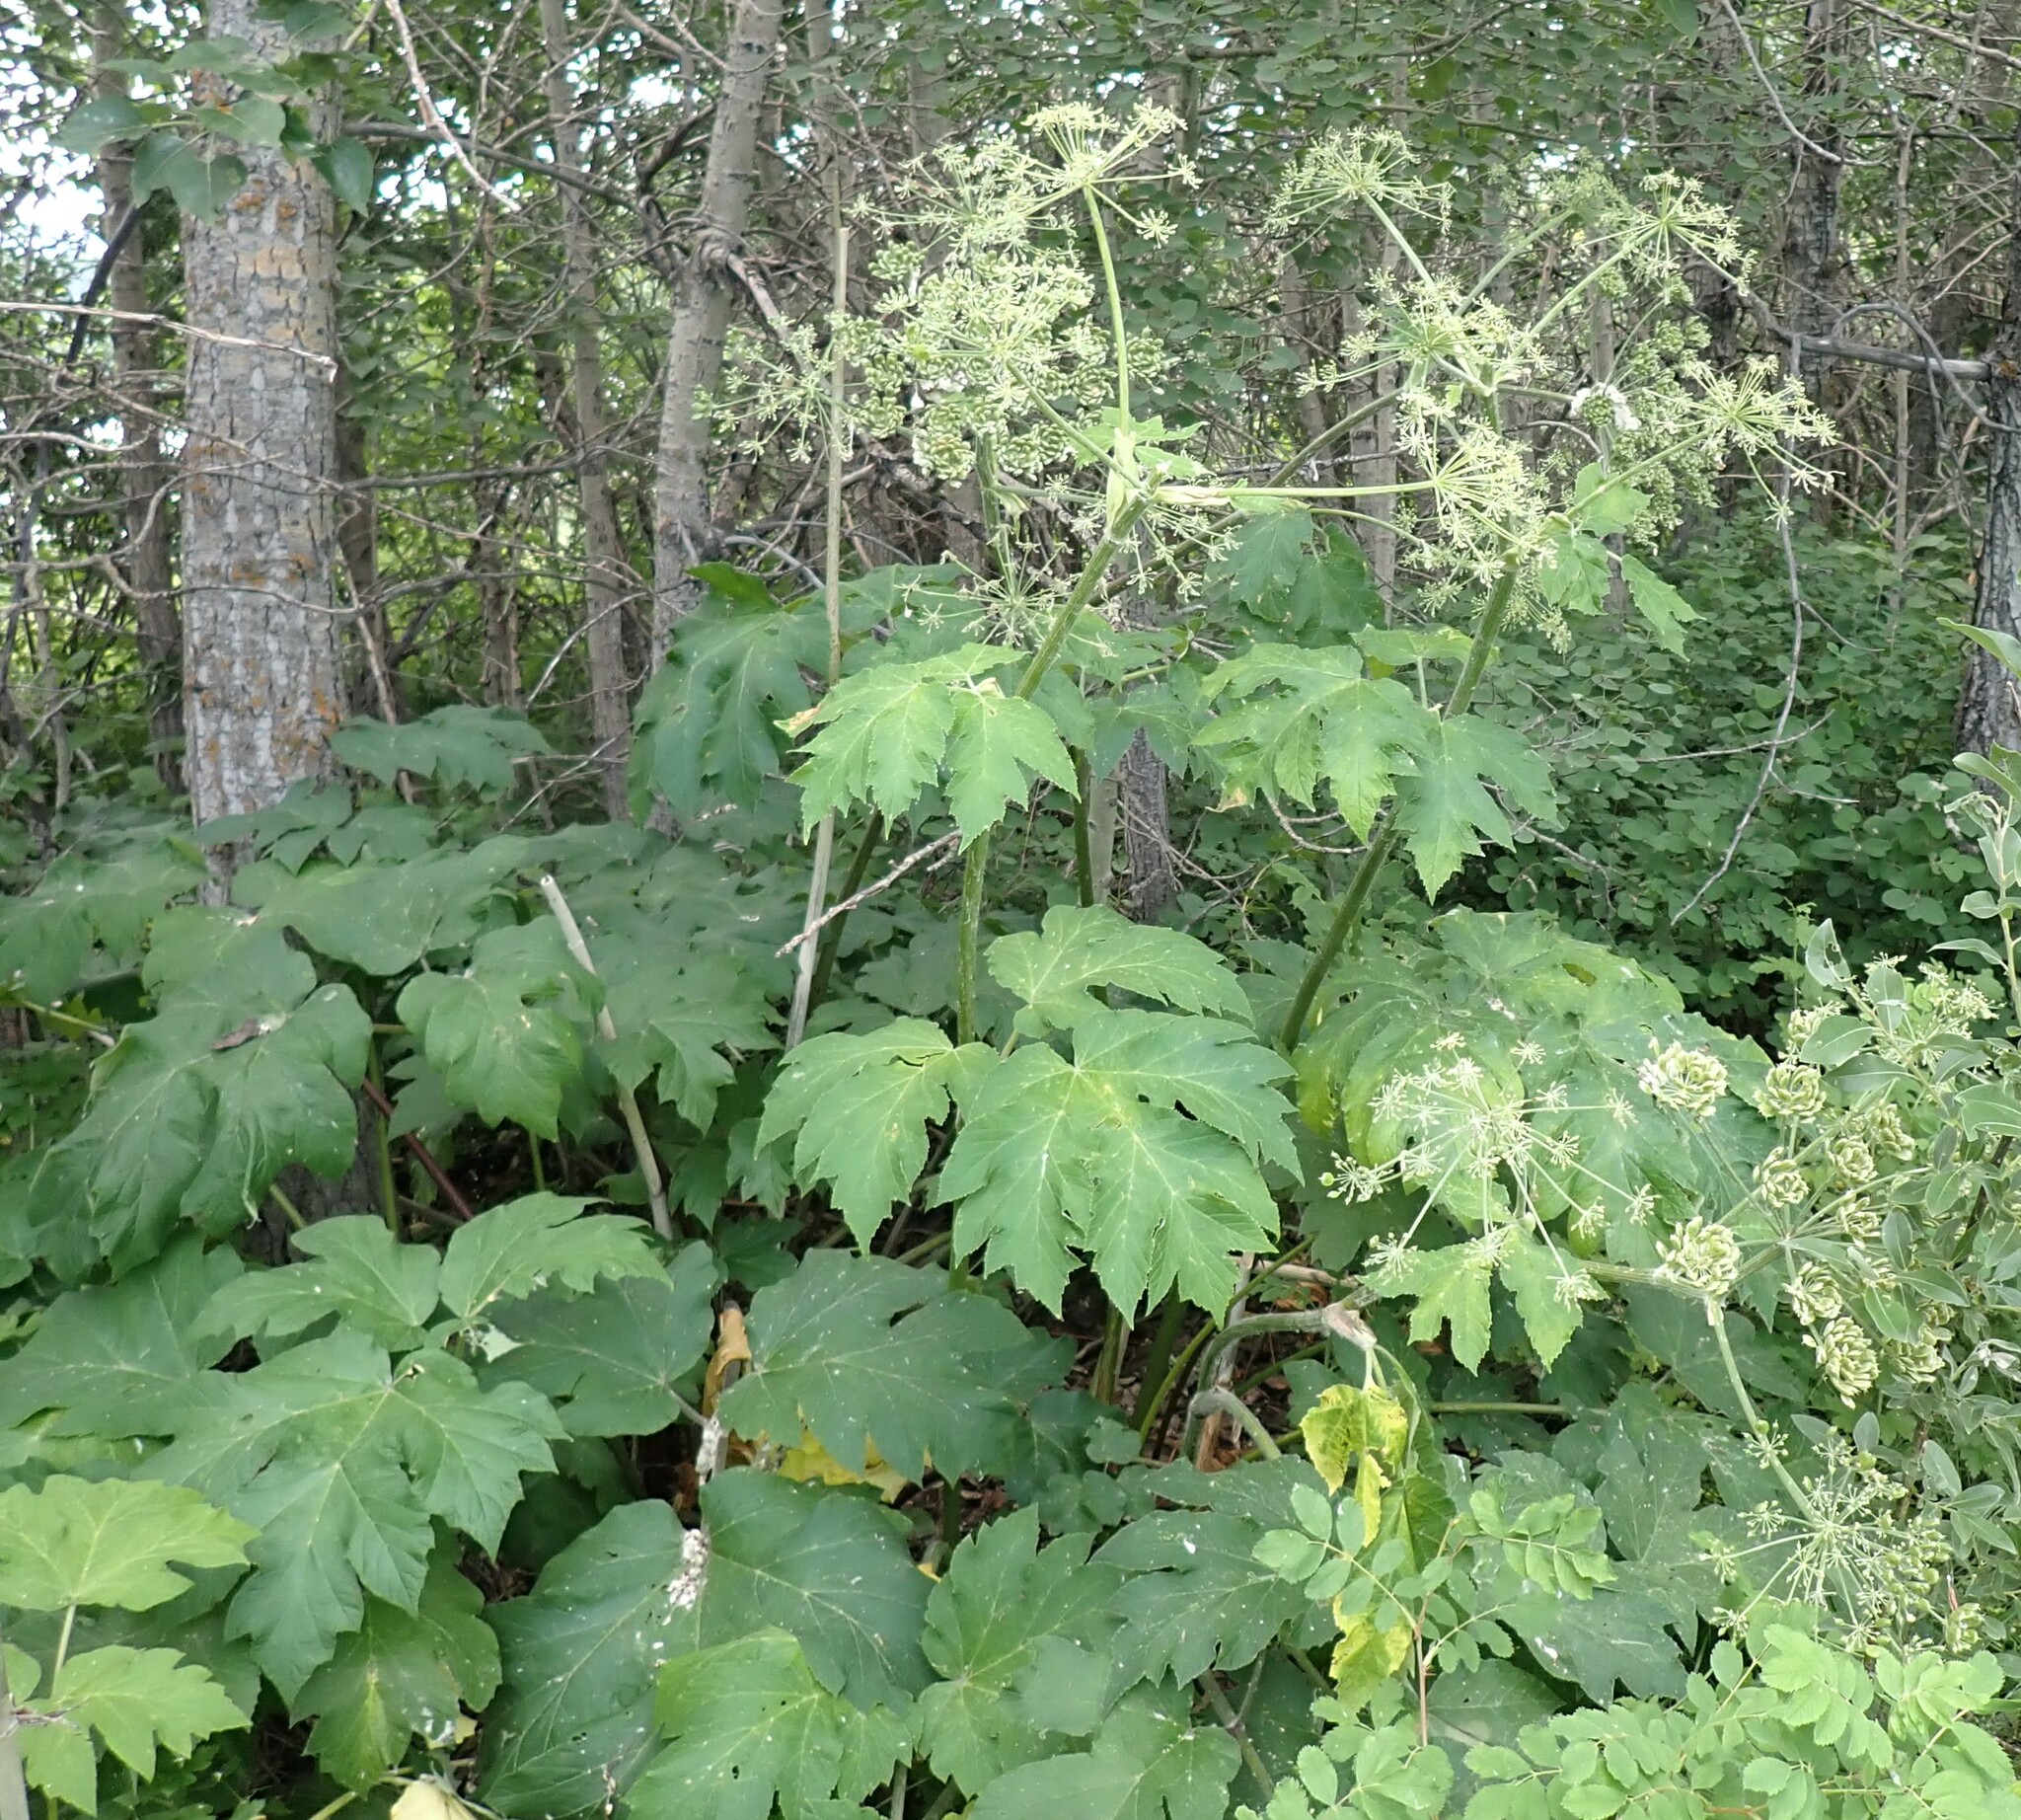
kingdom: Plantae
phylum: Tracheophyta
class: Magnoliopsida
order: Apiales
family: Apiaceae
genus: Heracleum
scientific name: Heracleum maximum
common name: American cow parsnip
